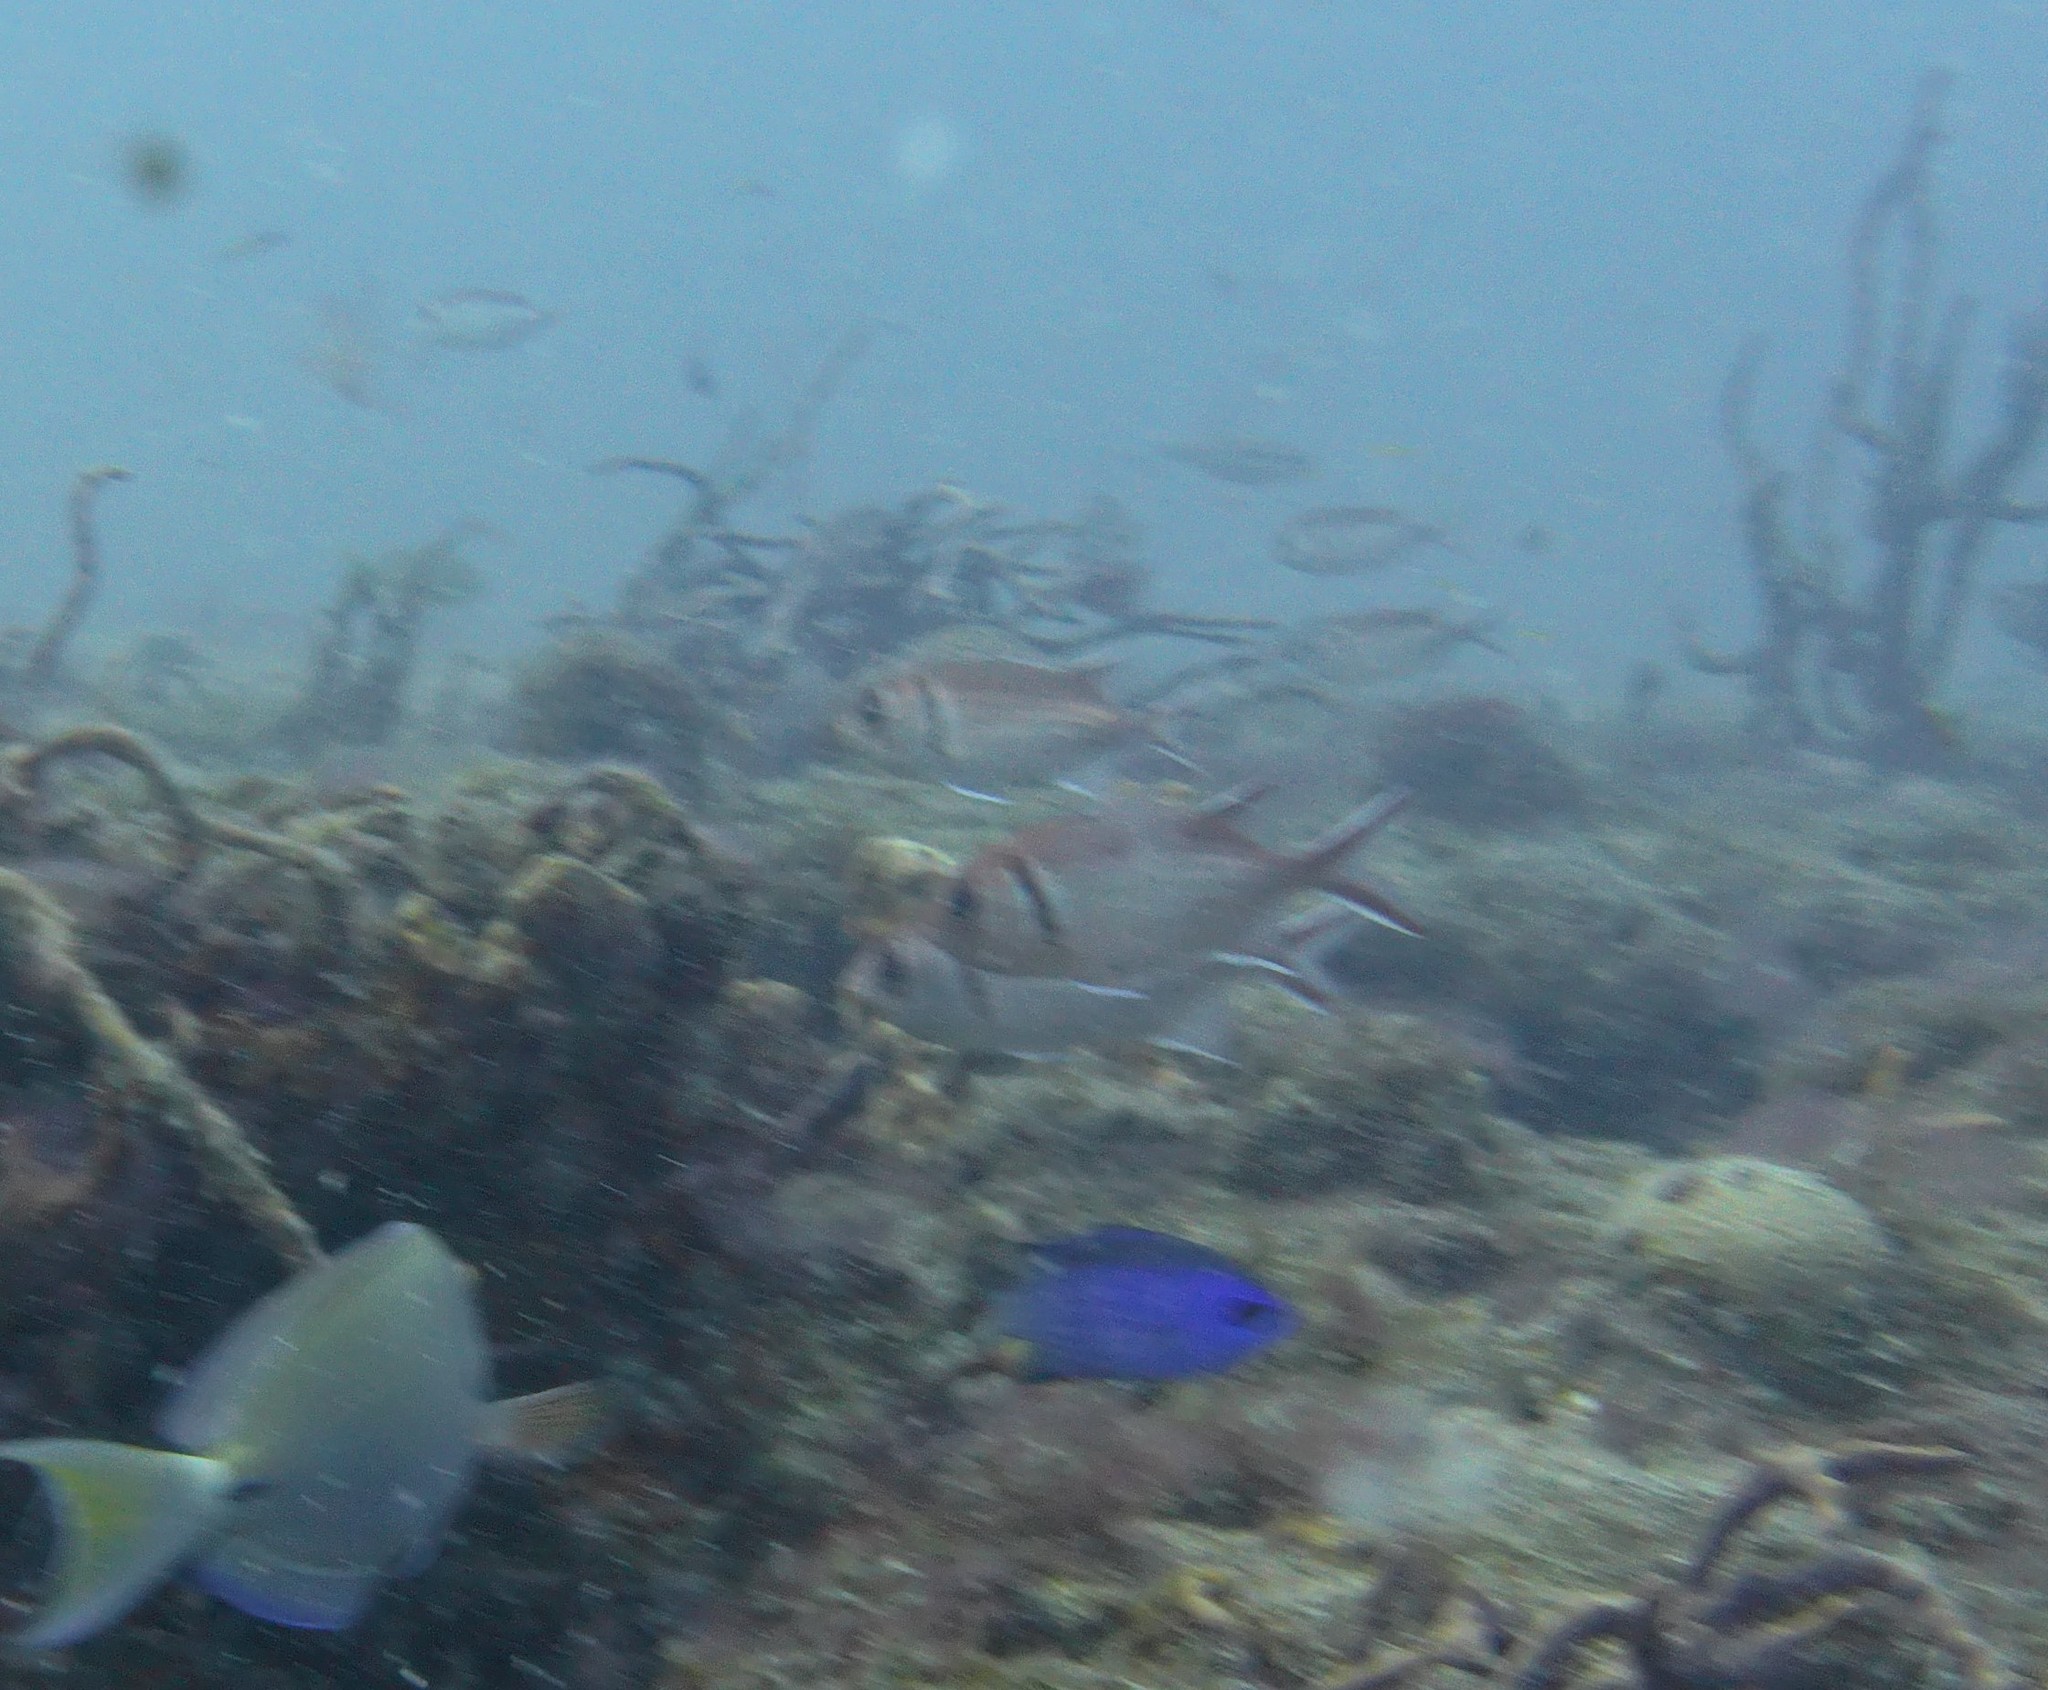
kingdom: Animalia
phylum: Chordata
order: Beryciformes
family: Holocentridae
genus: Myripristis
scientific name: Myripristis jacobus
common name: Blackbar soldierfish
